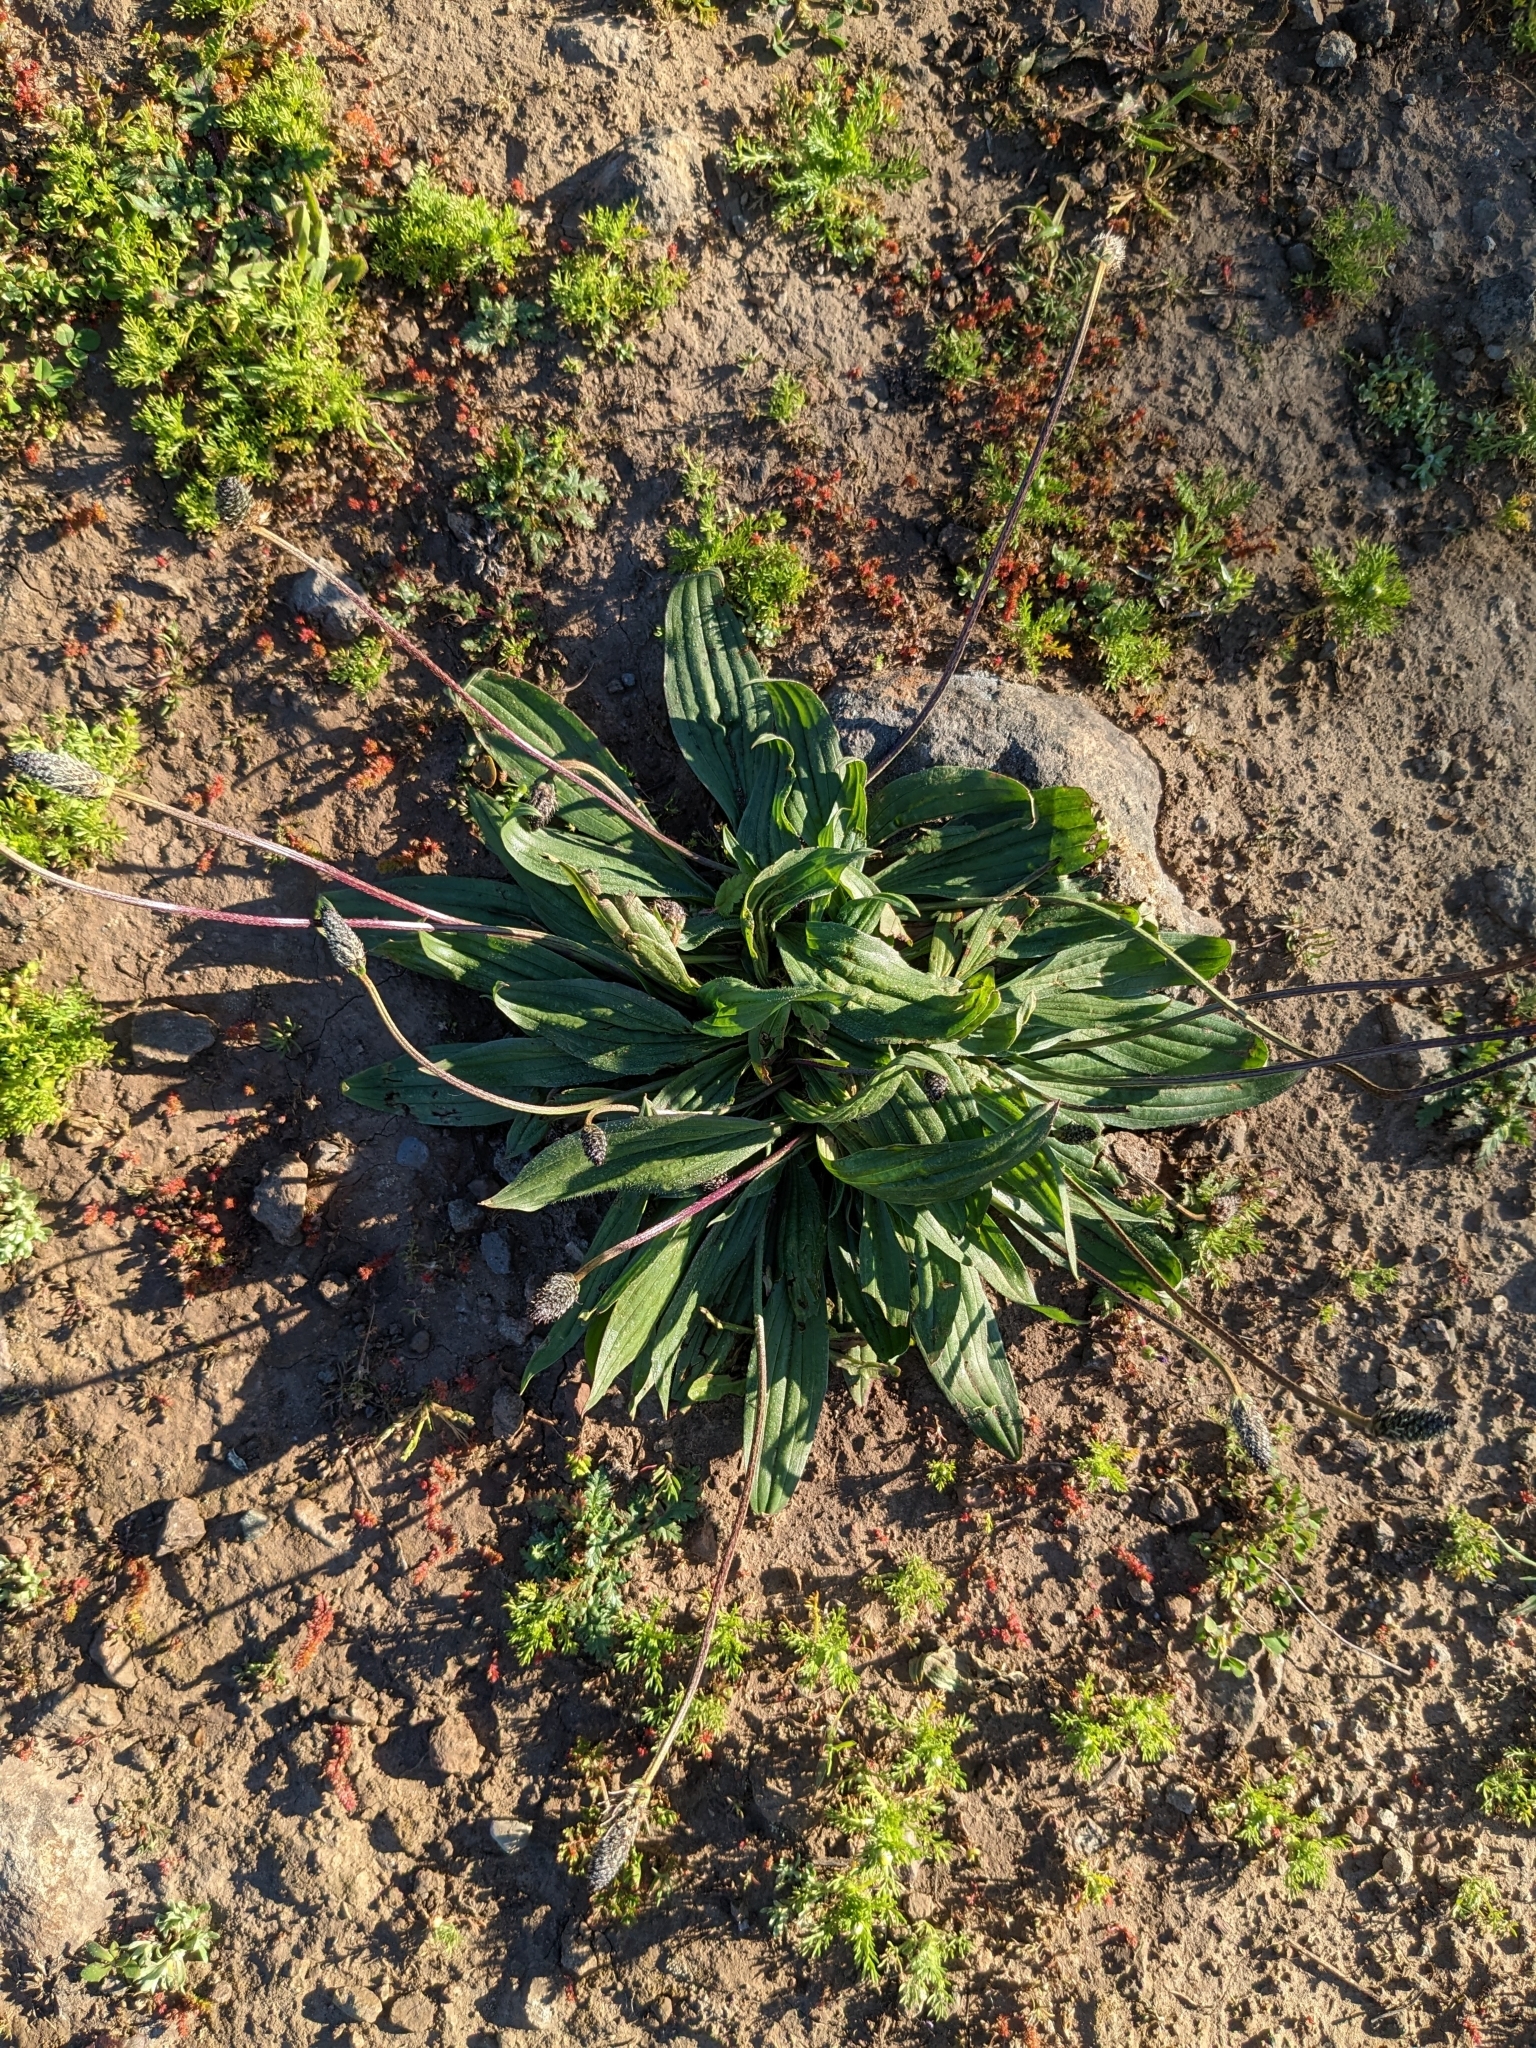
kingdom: Plantae
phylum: Tracheophyta
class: Magnoliopsida
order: Lamiales
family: Plantaginaceae
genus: Plantago
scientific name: Plantago lanceolata
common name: Ribwort plantain
